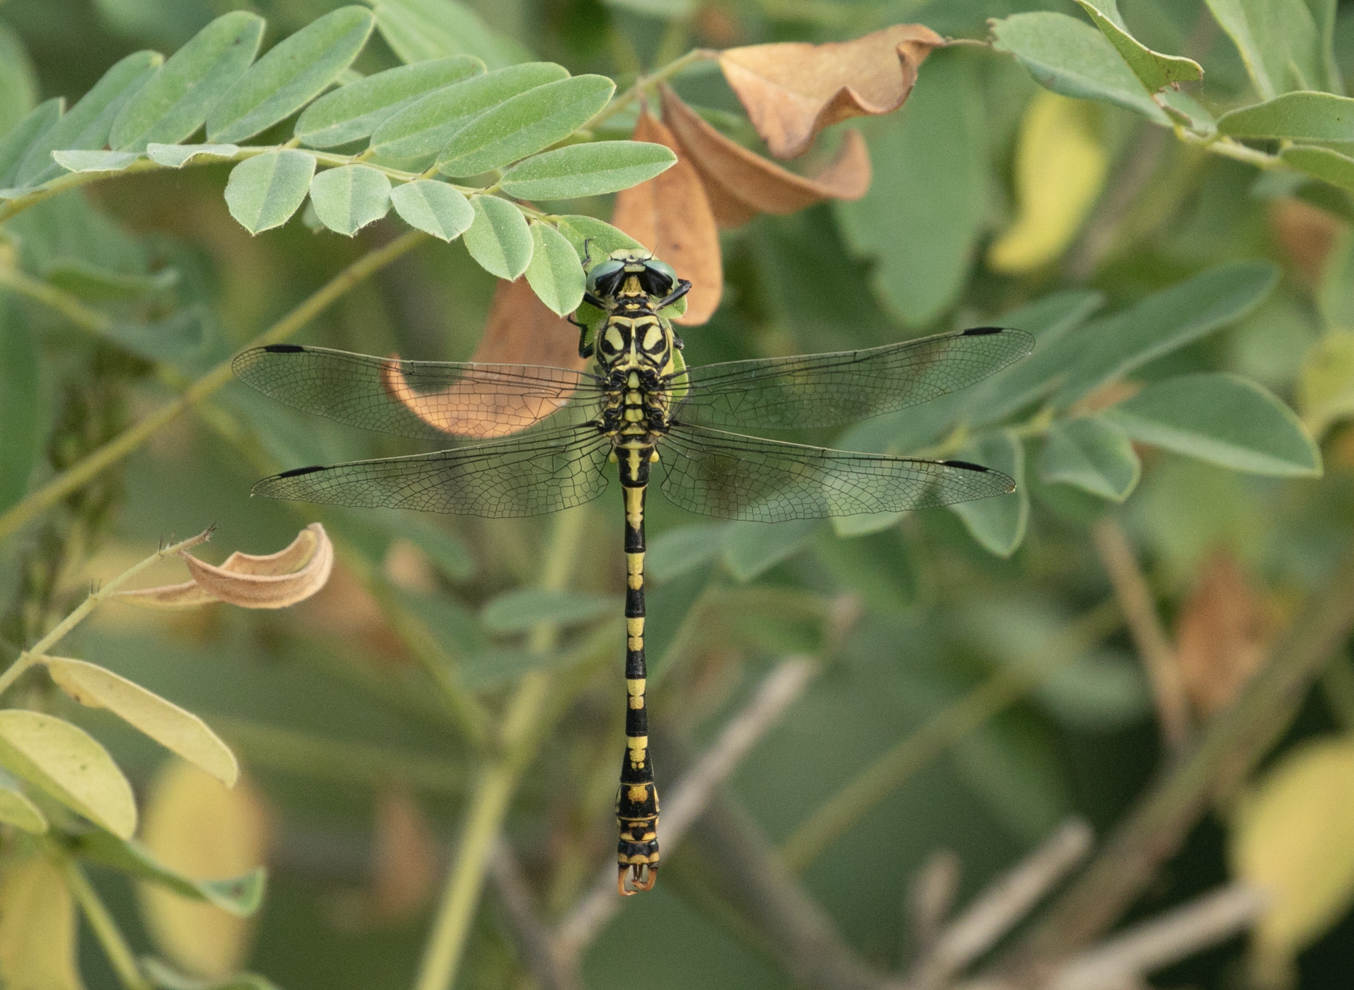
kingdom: Animalia
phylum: Arthropoda
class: Insecta
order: Odonata
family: Gomphidae
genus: Onychogomphus
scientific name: Onychogomphus forcipatus
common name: Small pincertail
